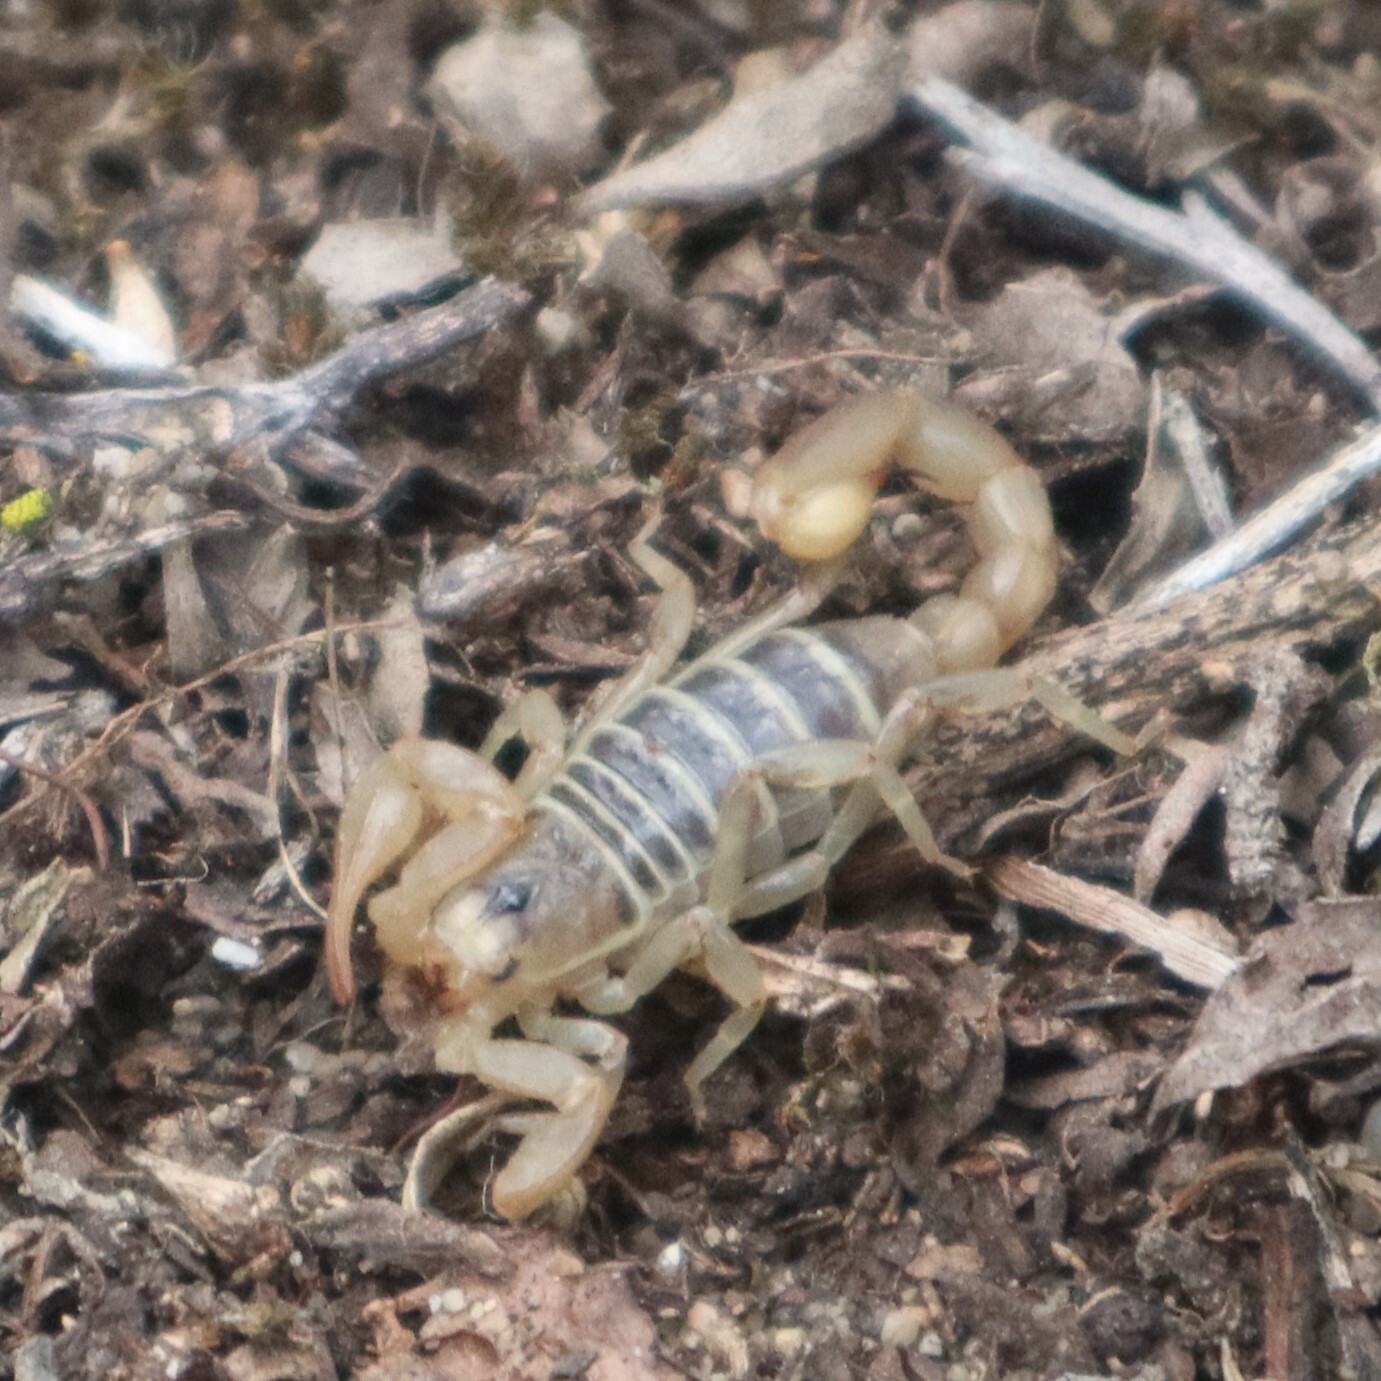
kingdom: Animalia
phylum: Arthropoda
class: Arachnida
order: Scorpiones
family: Vaejovidae
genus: Paruroctonus
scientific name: Paruroctonus maritimus
